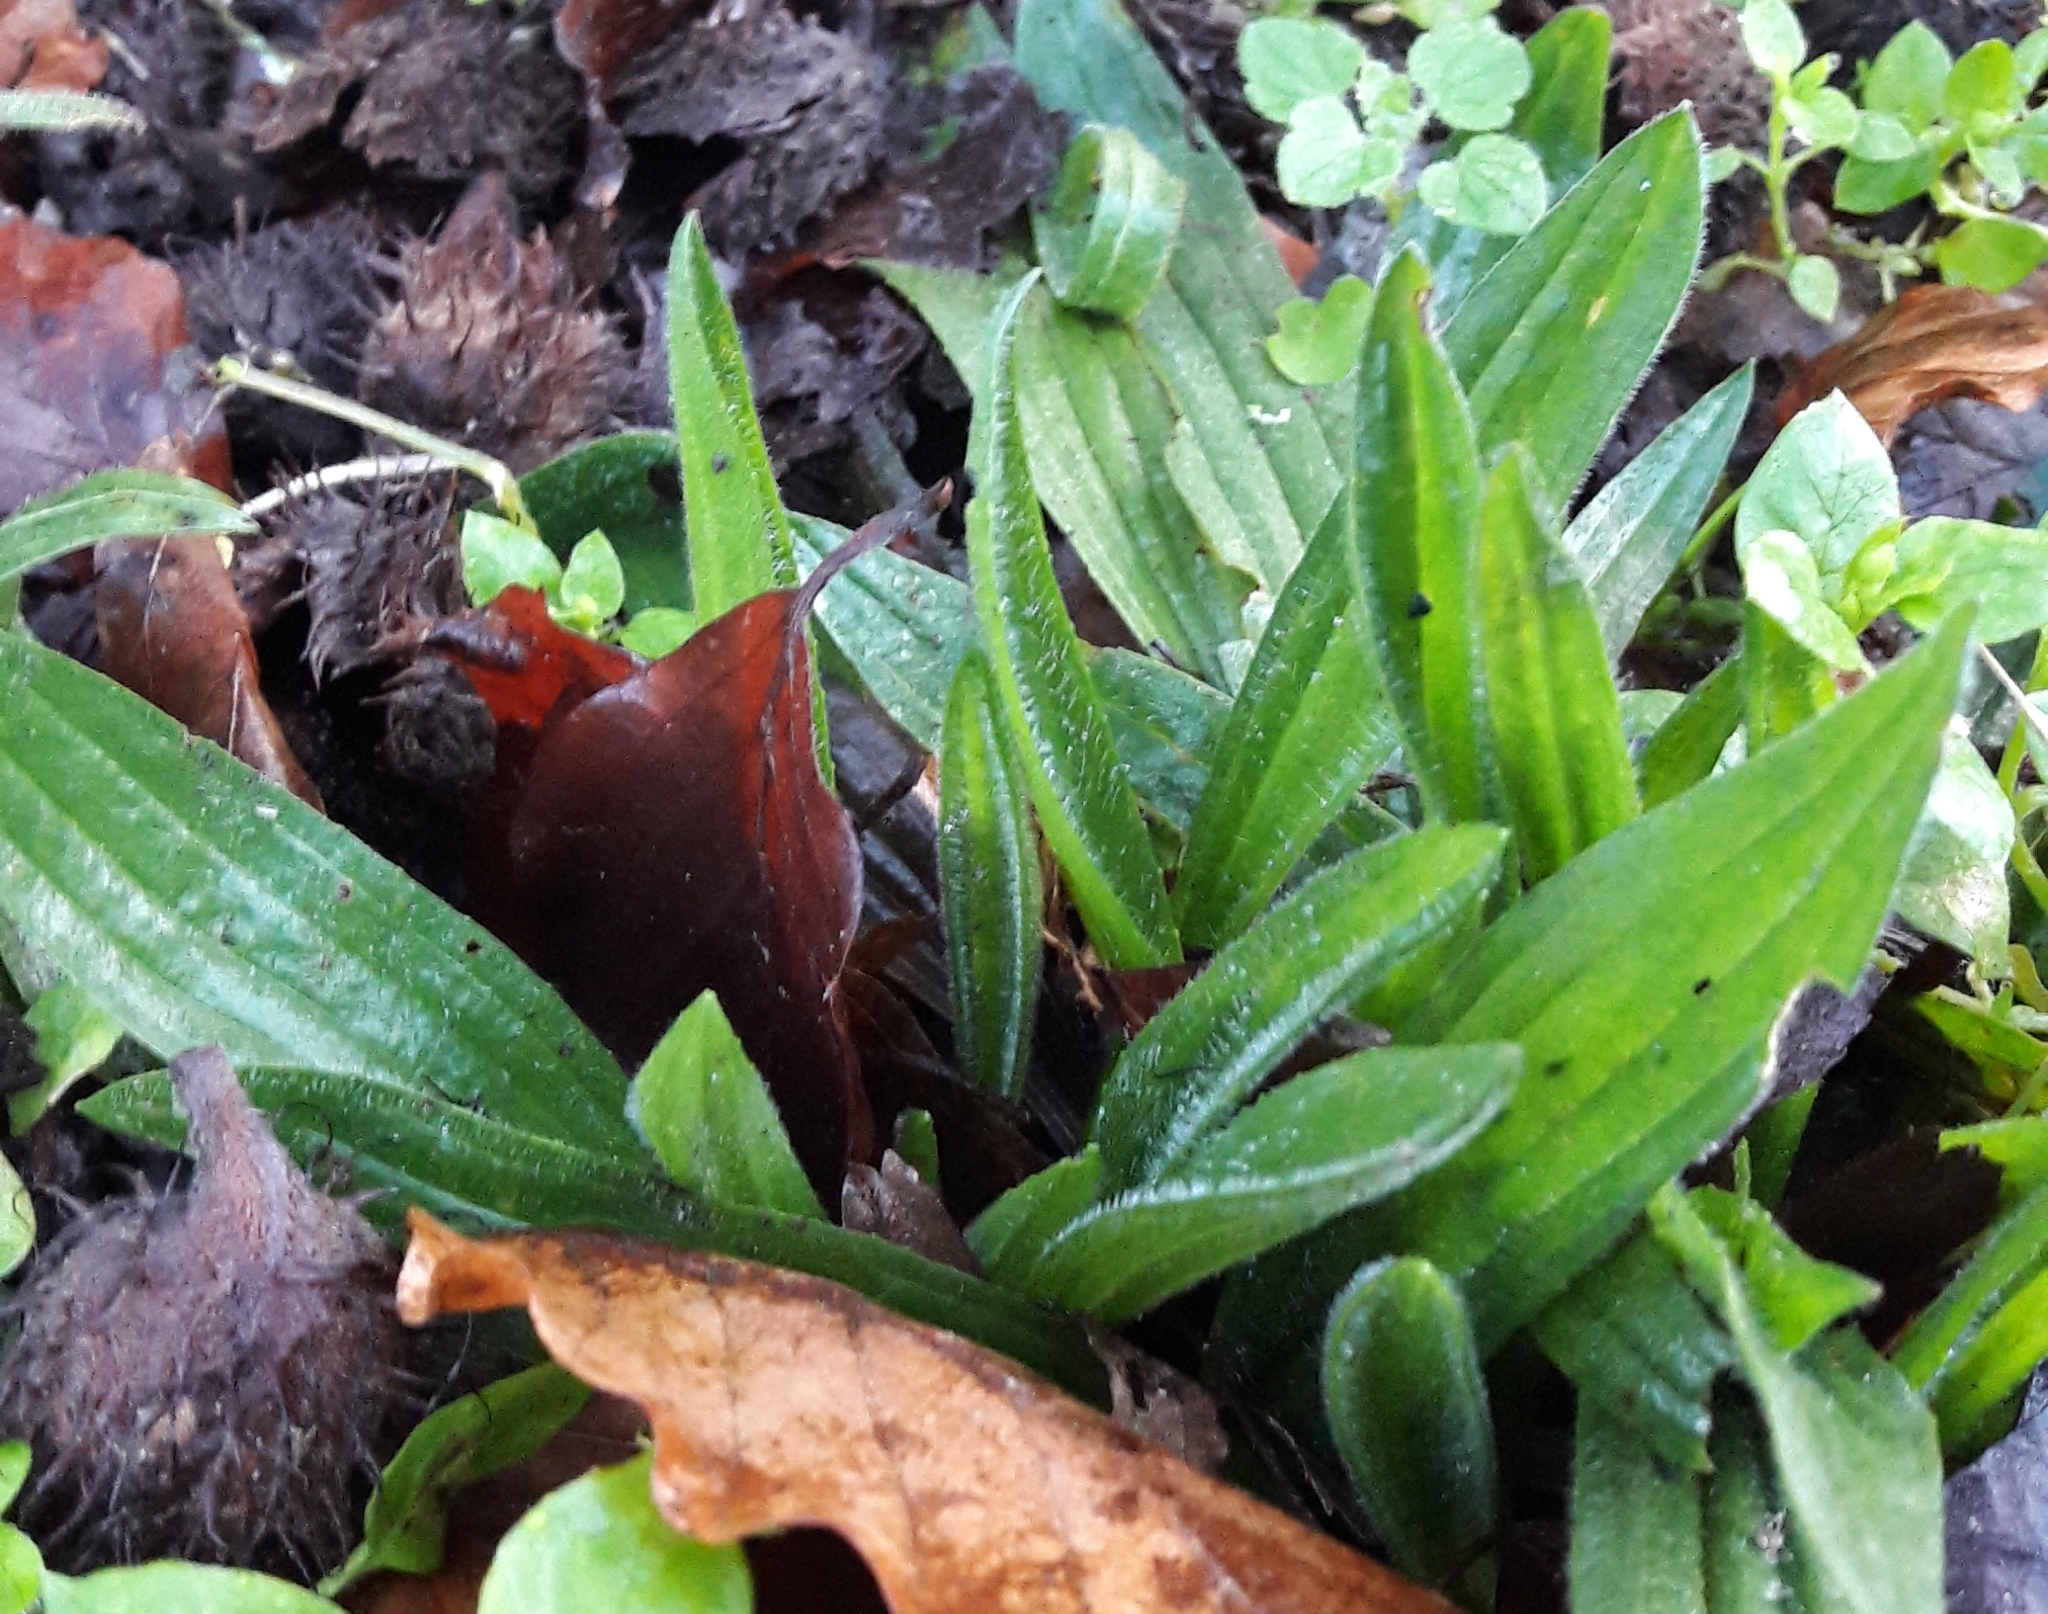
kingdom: Plantae
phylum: Tracheophyta
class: Magnoliopsida
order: Lamiales
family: Plantaginaceae
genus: Plantago
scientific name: Plantago lanceolata
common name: Ribwort plantain
